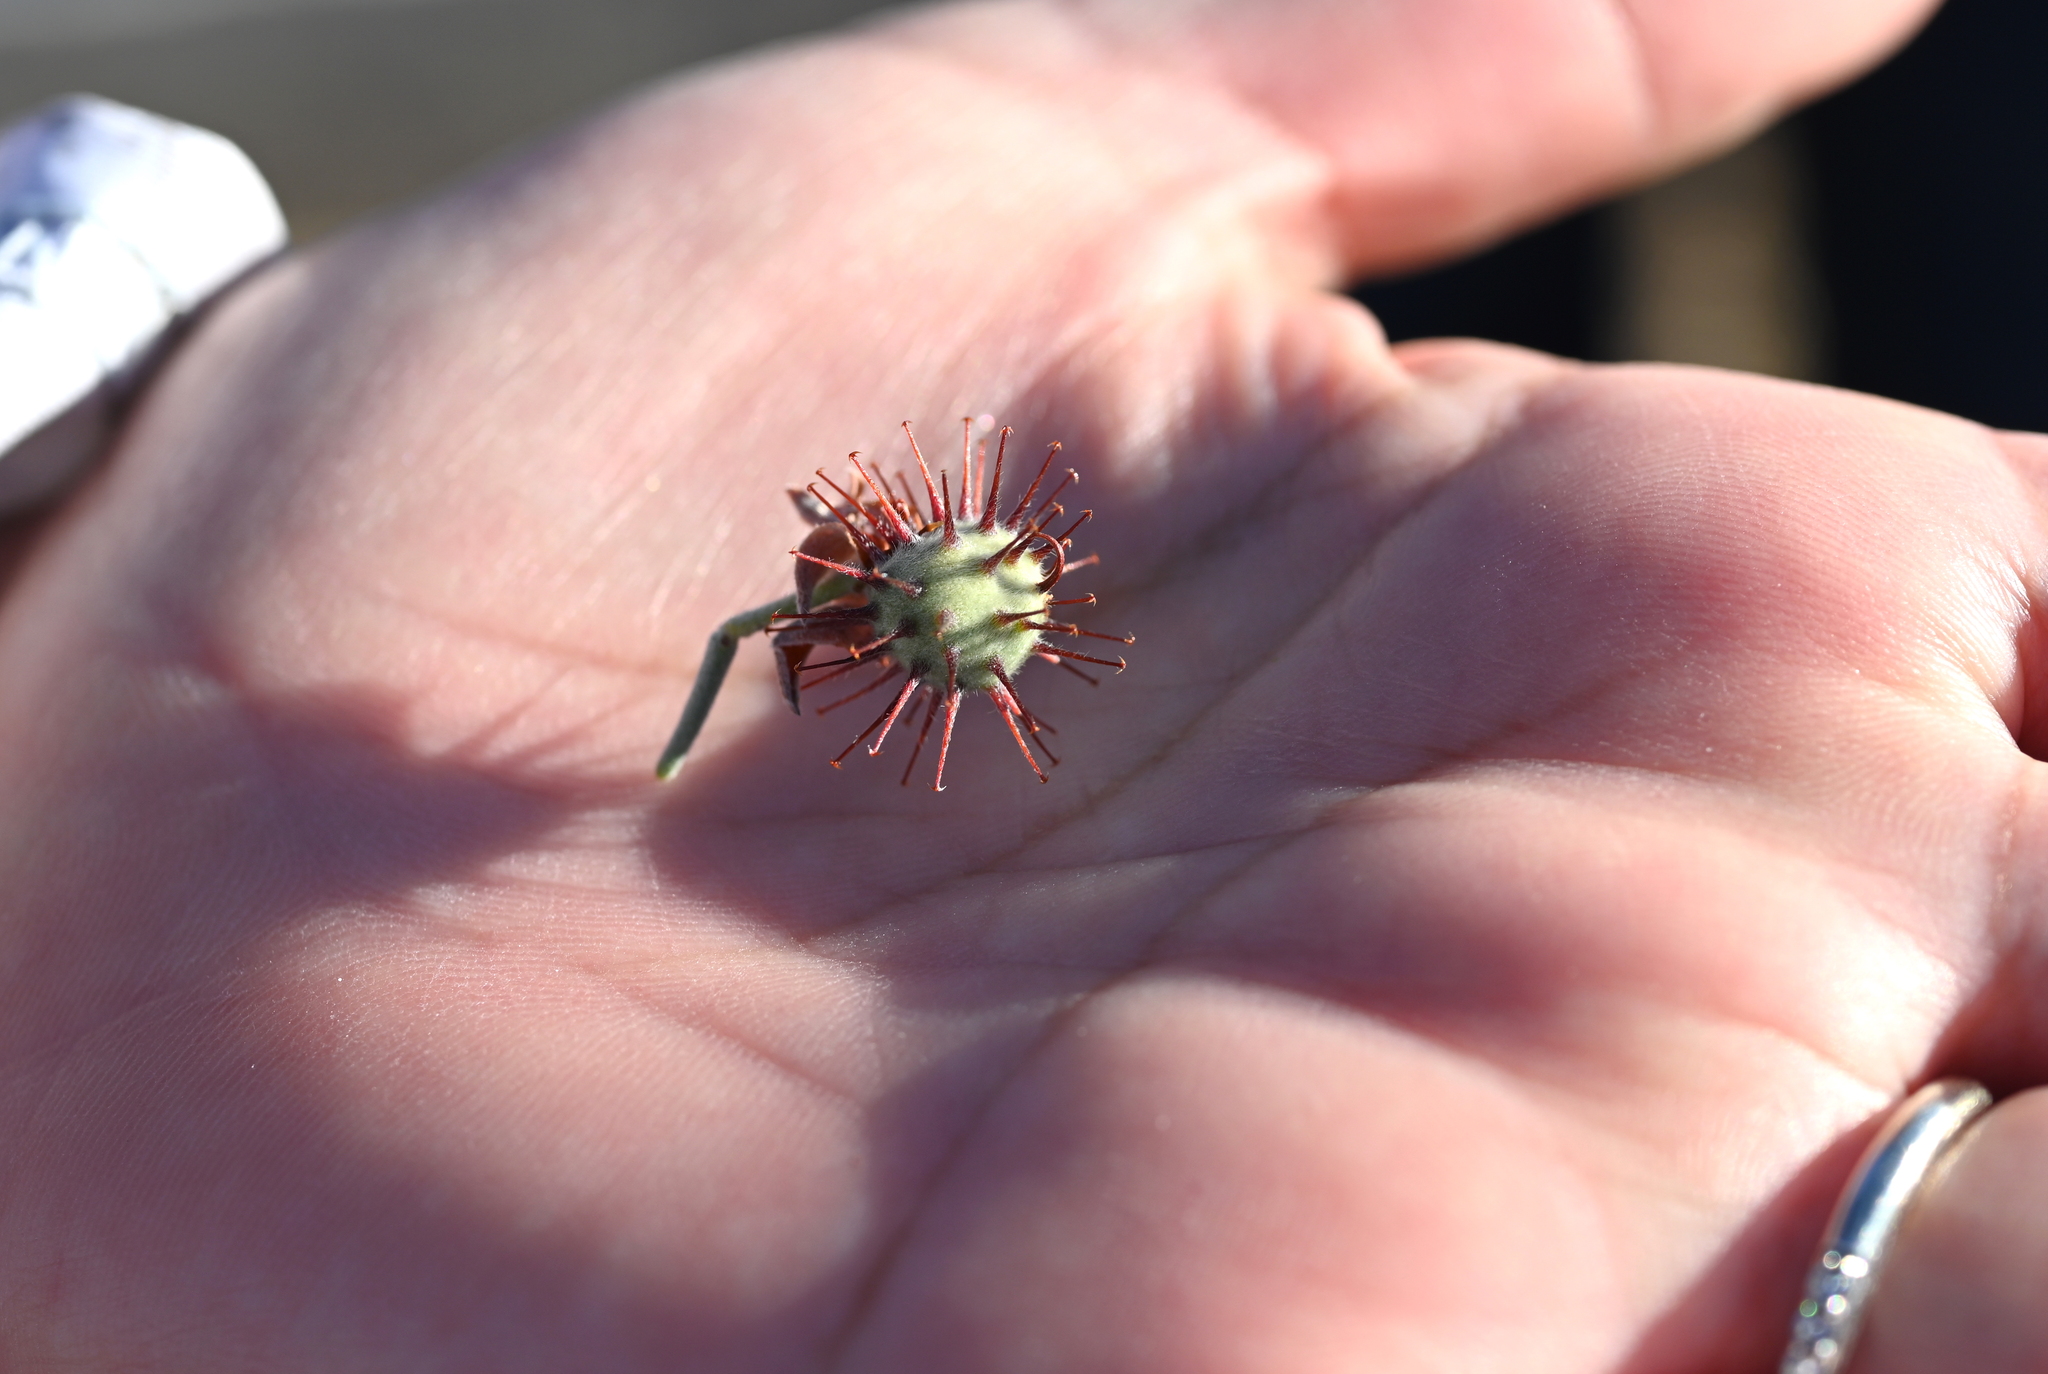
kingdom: Plantae
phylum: Tracheophyta
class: Magnoliopsida
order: Zygophyllales
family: Krameriaceae
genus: Krameria
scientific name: Krameria bicolor
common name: White ratany
